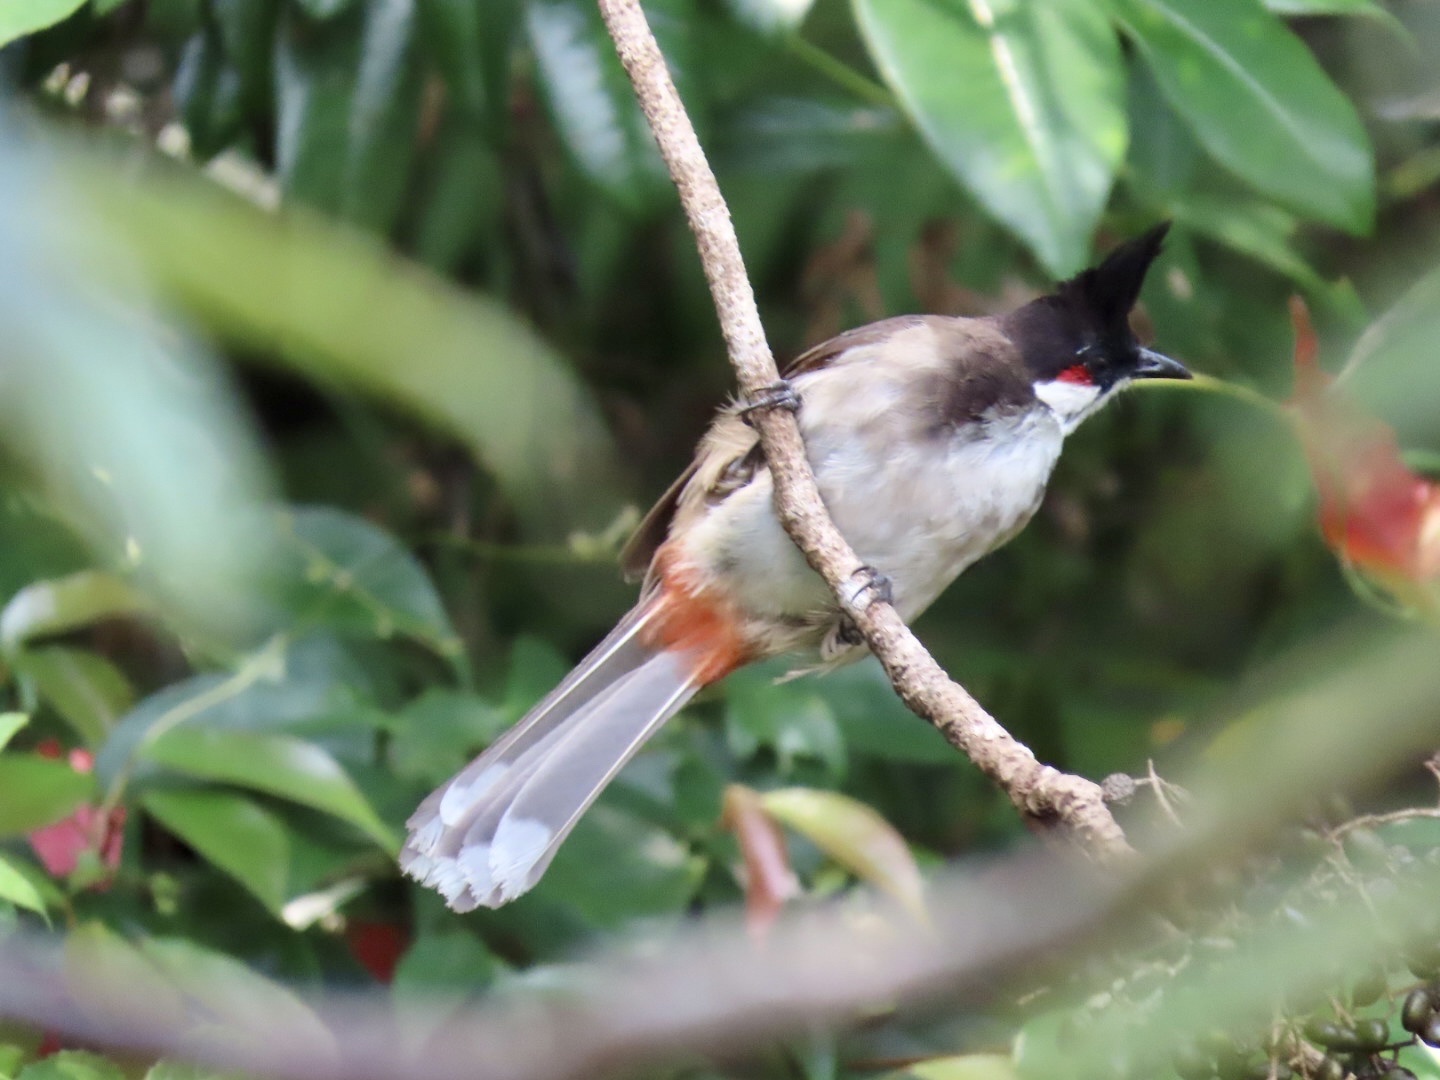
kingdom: Animalia
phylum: Chordata
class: Aves
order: Passeriformes
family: Pycnonotidae
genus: Pycnonotus
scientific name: Pycnonotus jocosus
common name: Red-whiskered bulbul
